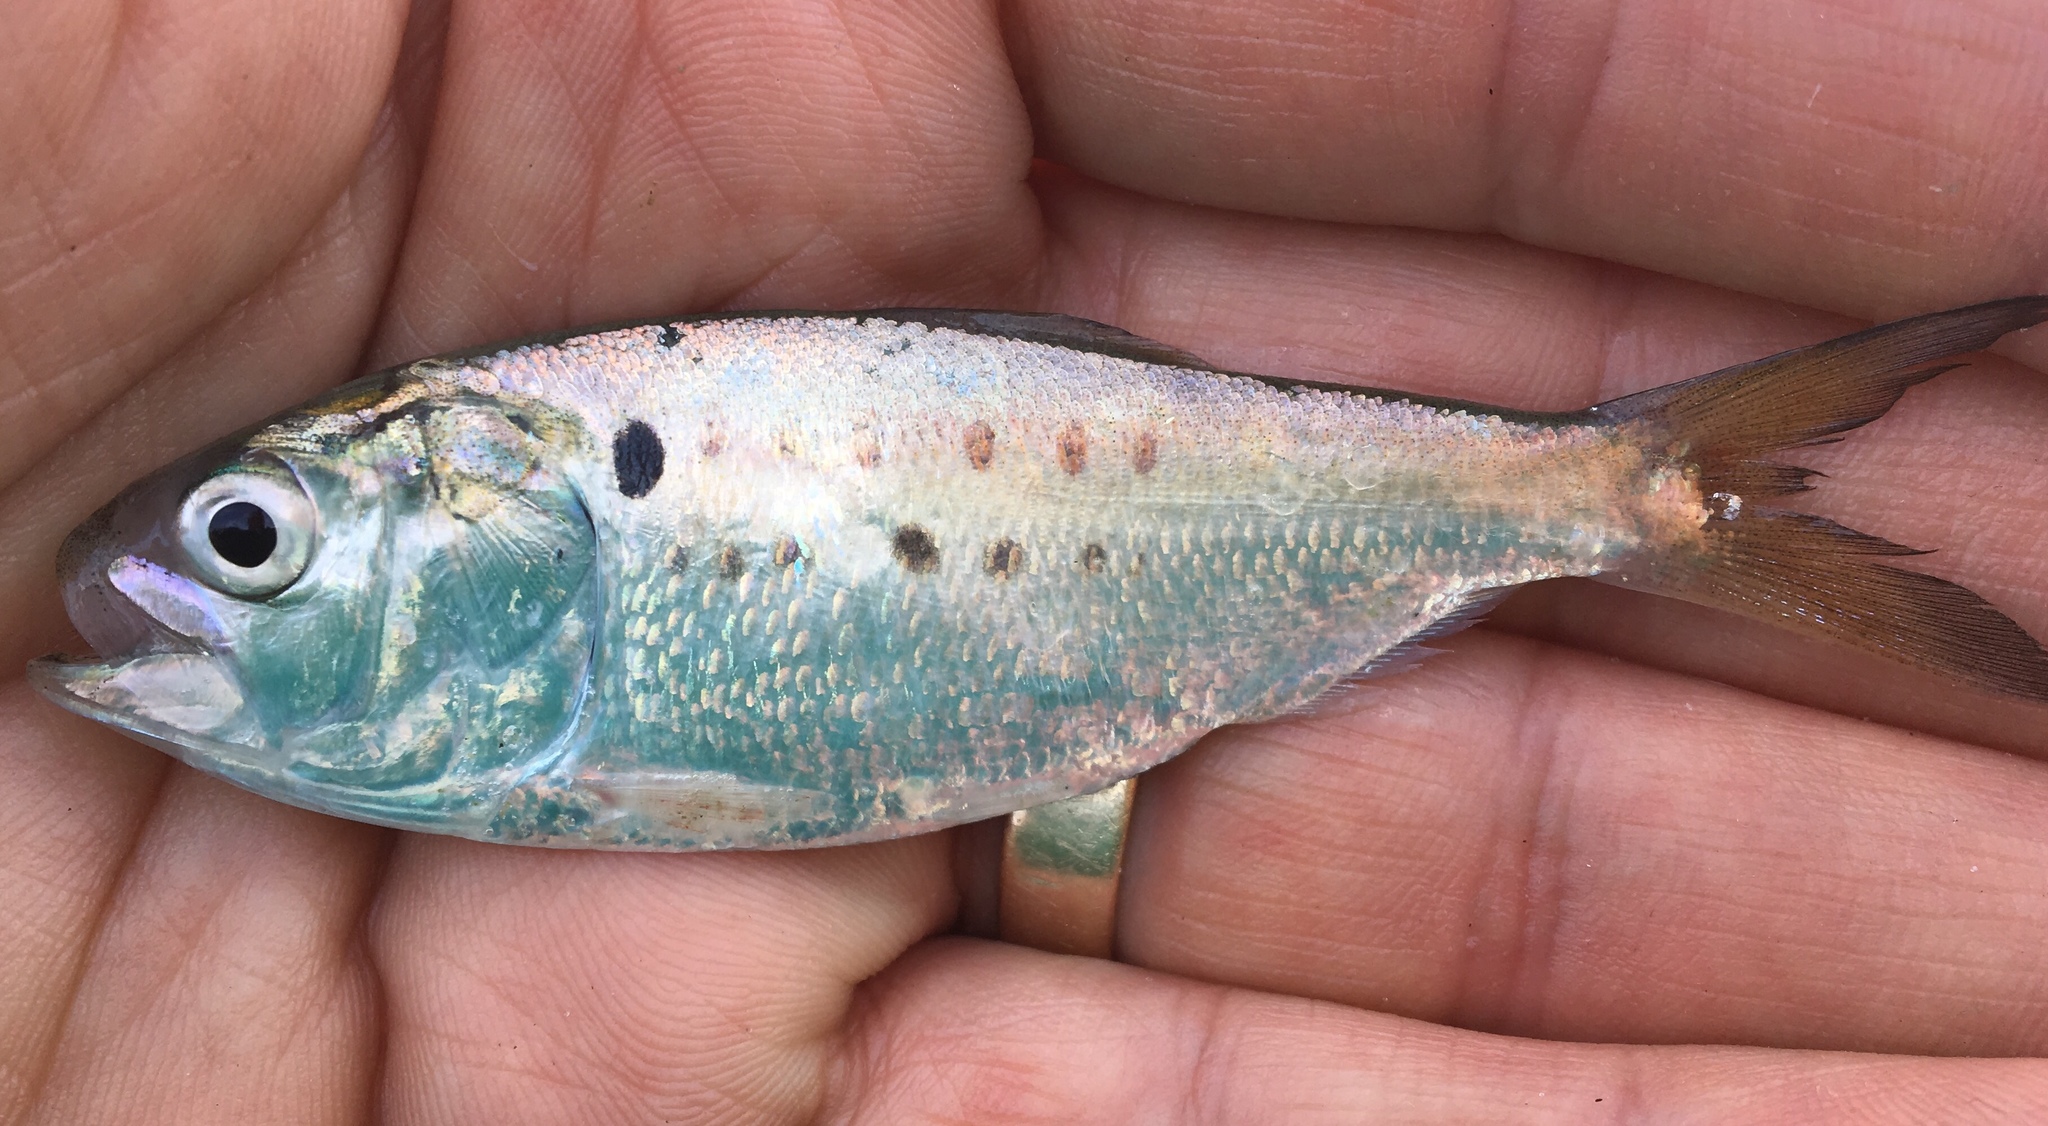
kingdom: Animalia
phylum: Chordata
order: Clupeiformes
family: Clupeidae
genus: Brevoortia
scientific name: Brevoortia tyrannus
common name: Atlantic menhaden
